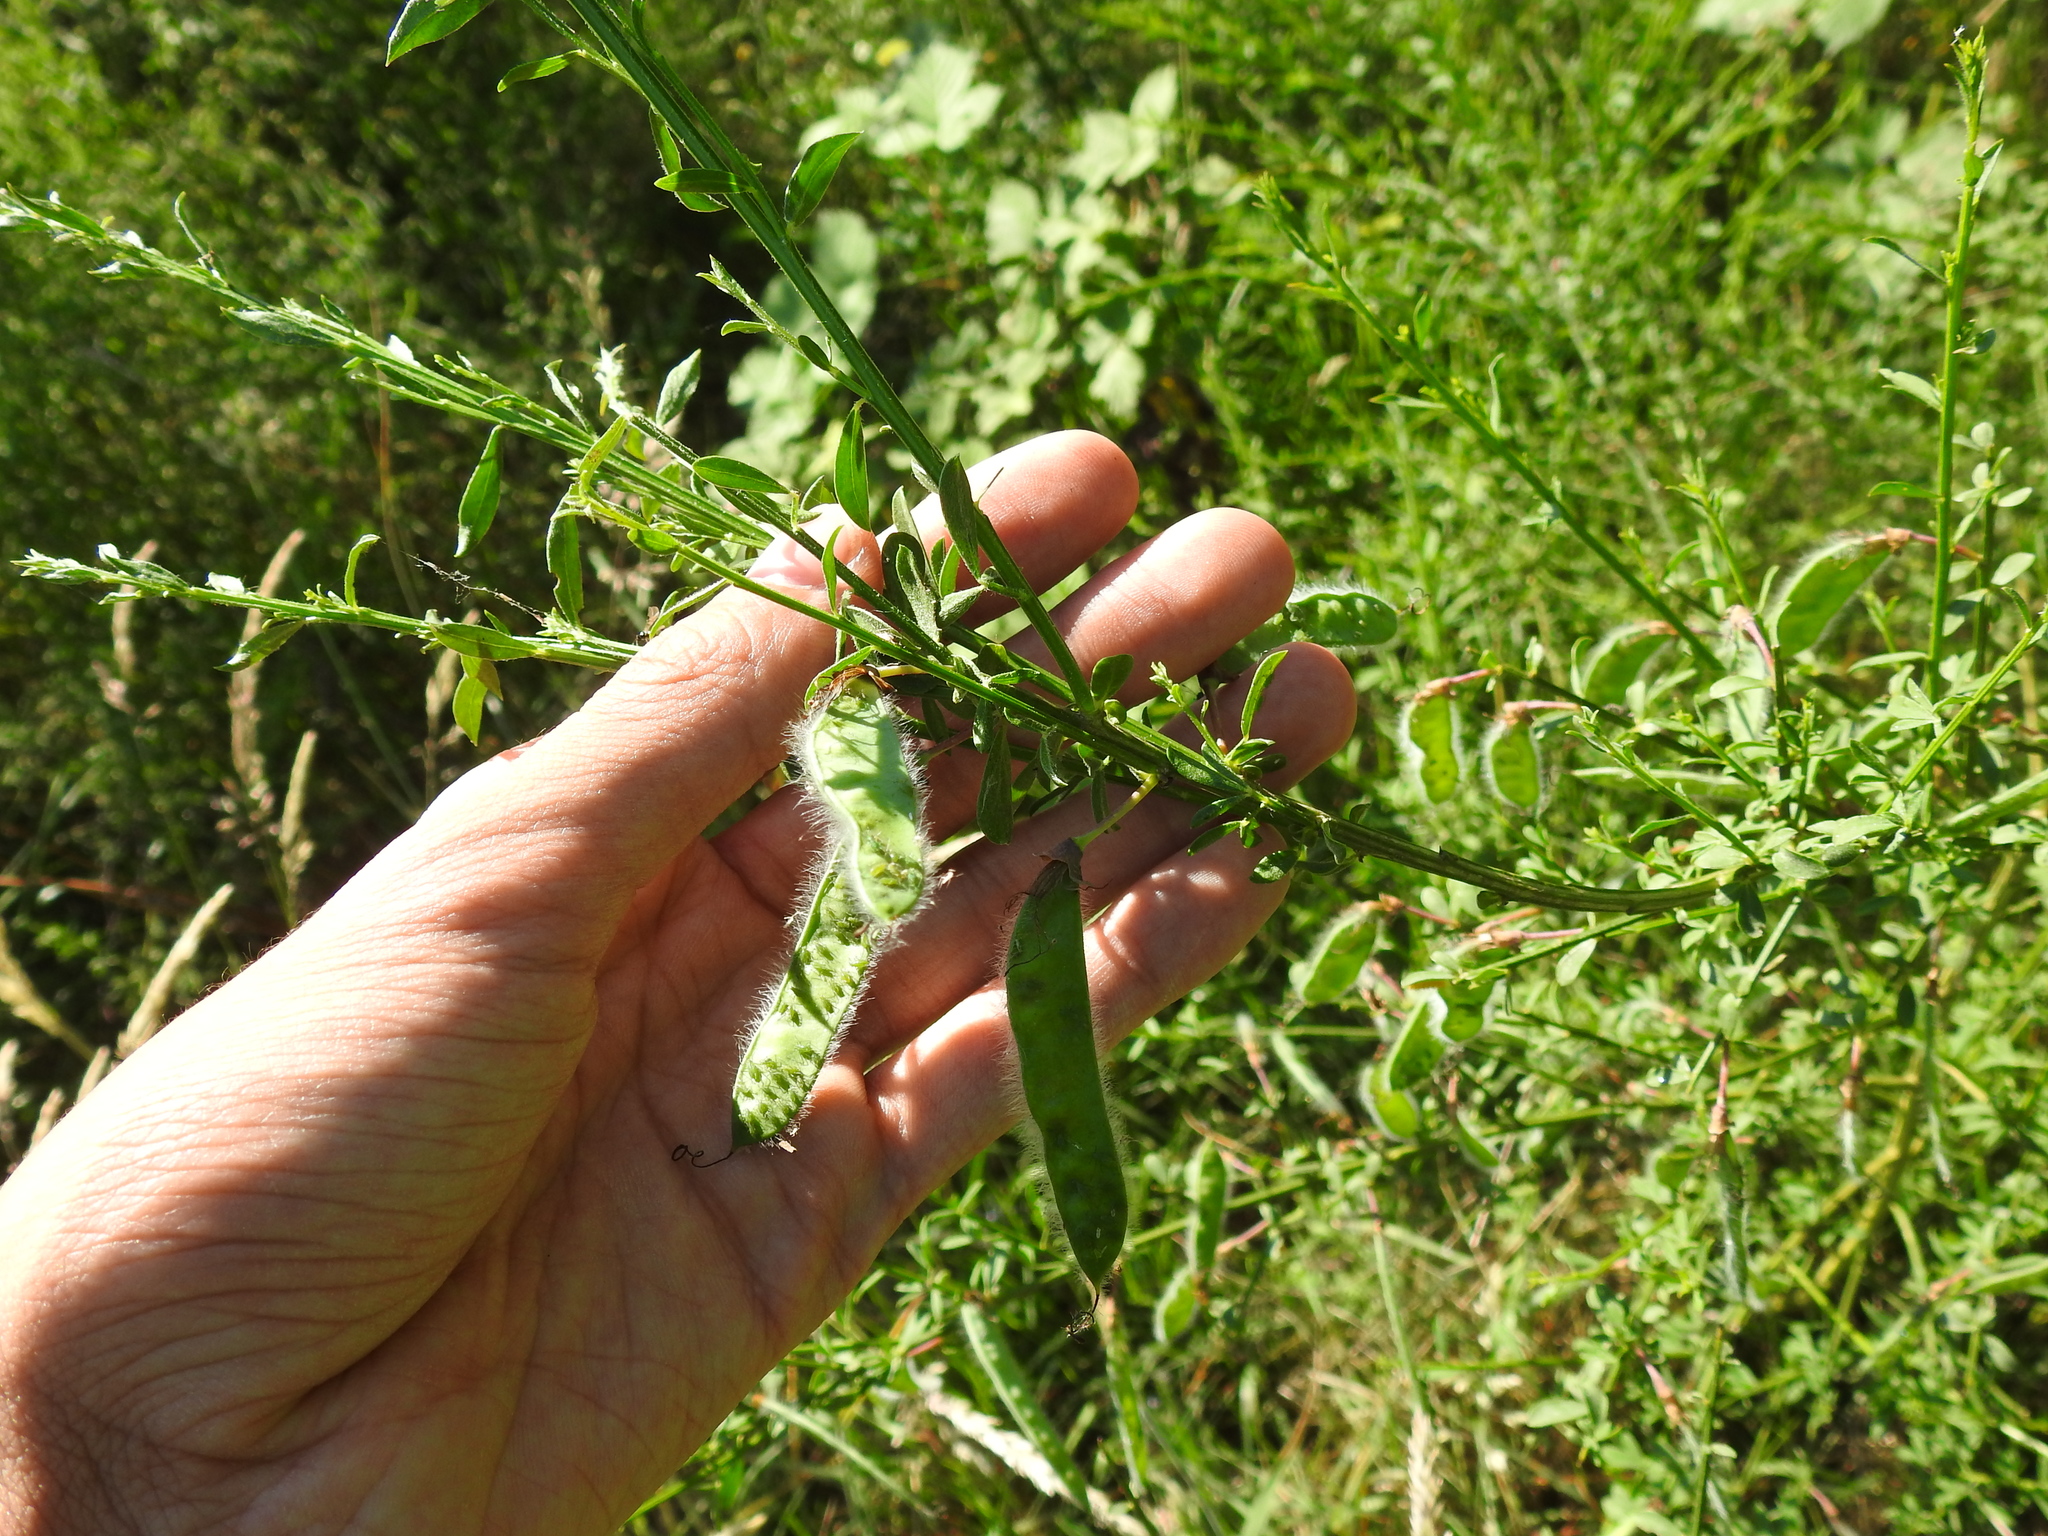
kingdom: Plantae
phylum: Tracheophyta
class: Magnoliopsida
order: Fabales
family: Fabaceae
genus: Cytisus
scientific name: Cytisus scoparius
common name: Scotch broom
